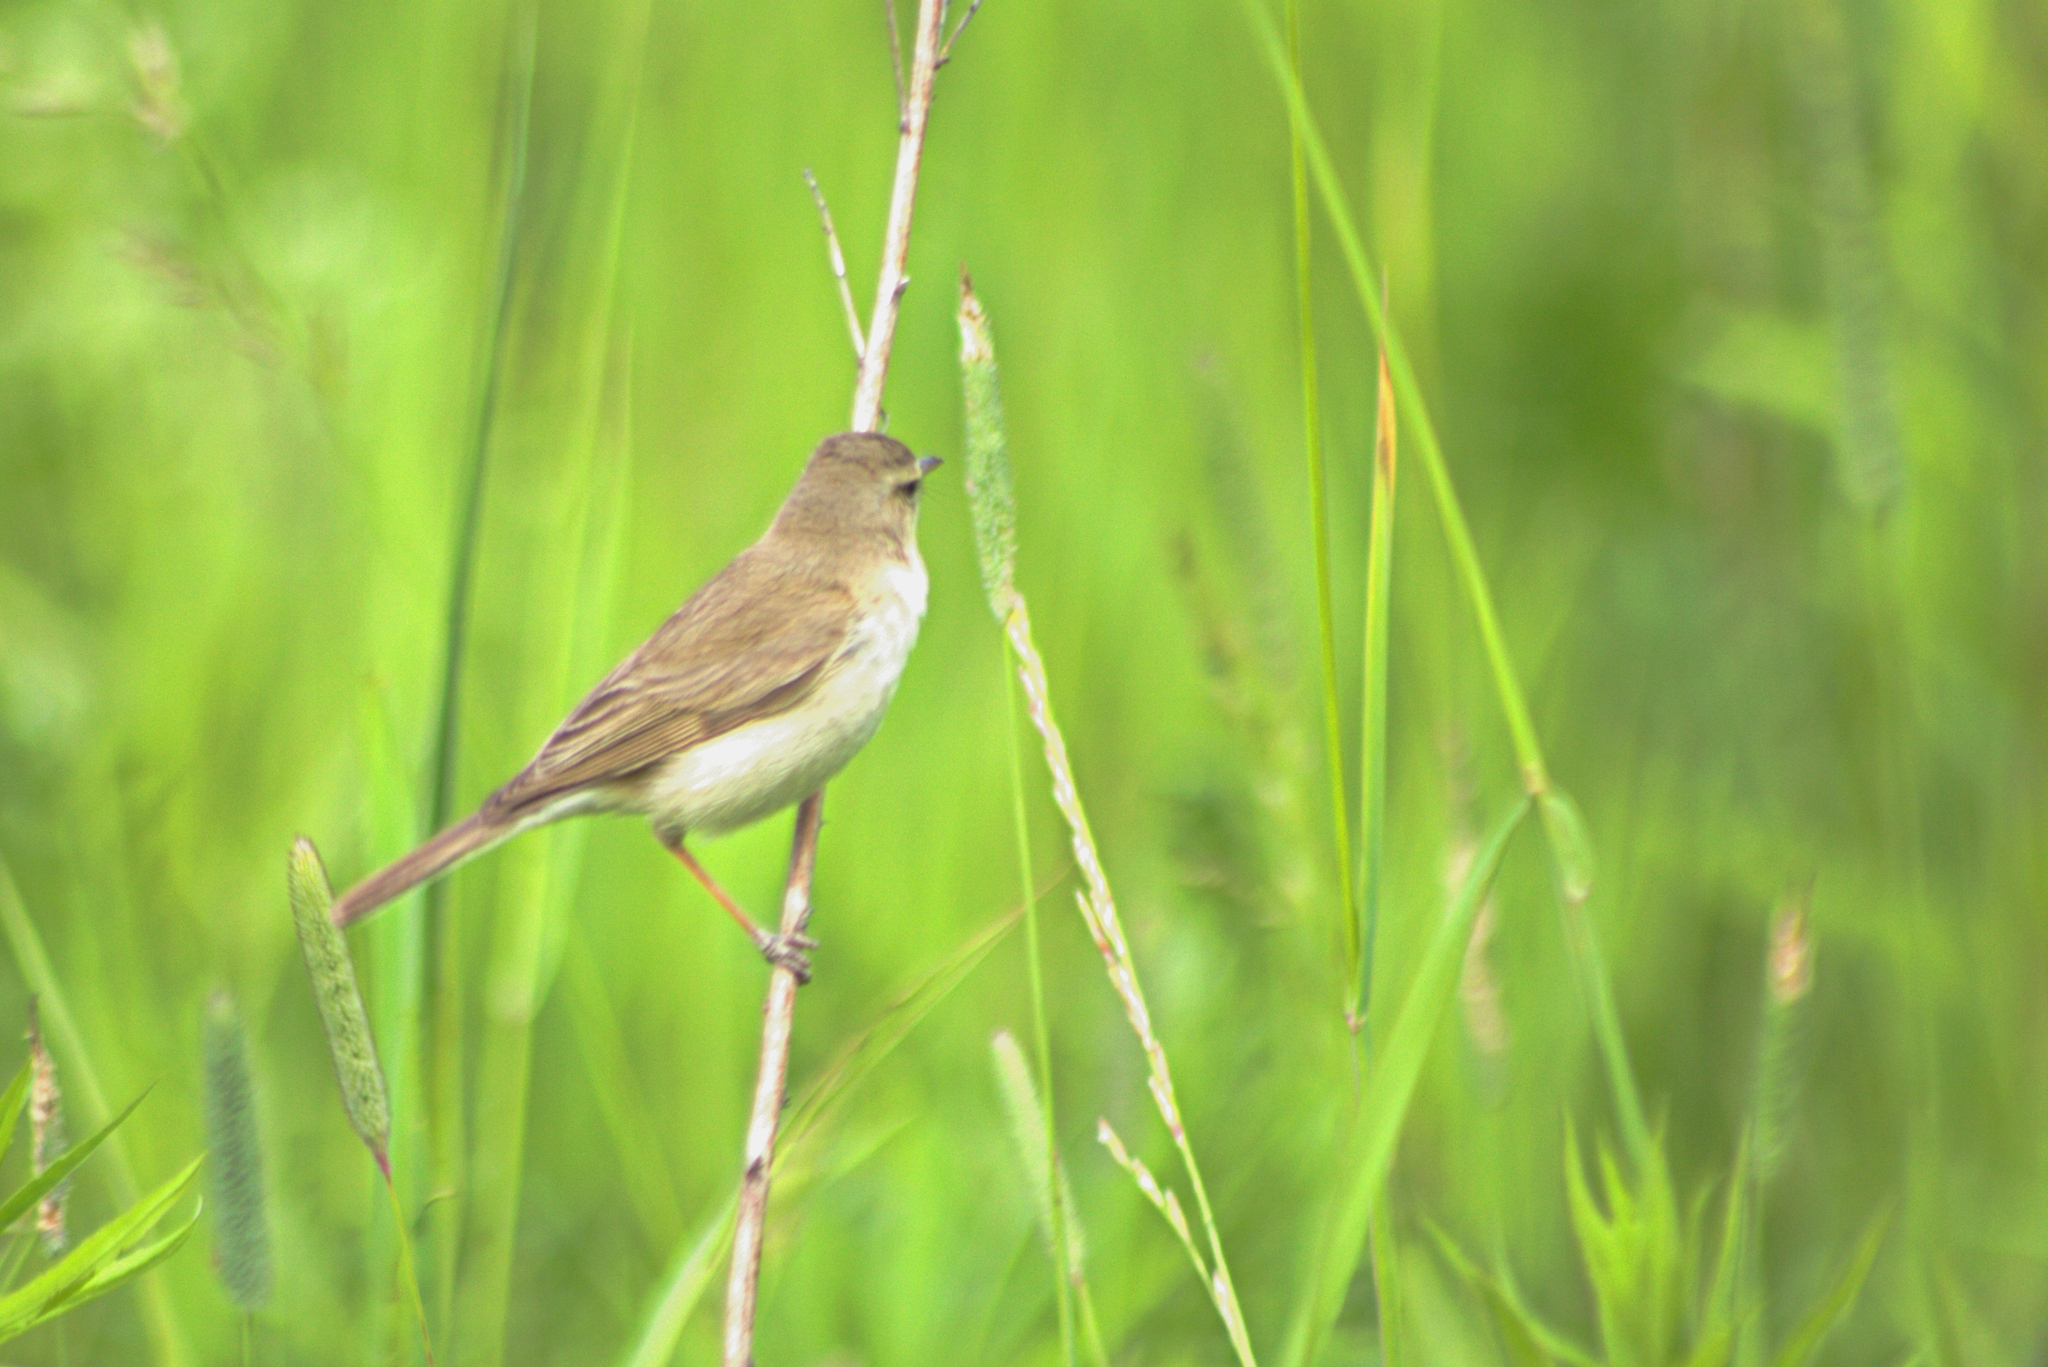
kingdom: Animalia
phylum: Chordata
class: Aves
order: Passeriformes
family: Acrocephalidae
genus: Iduna
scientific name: Iduna caligata
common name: Booted warbler
